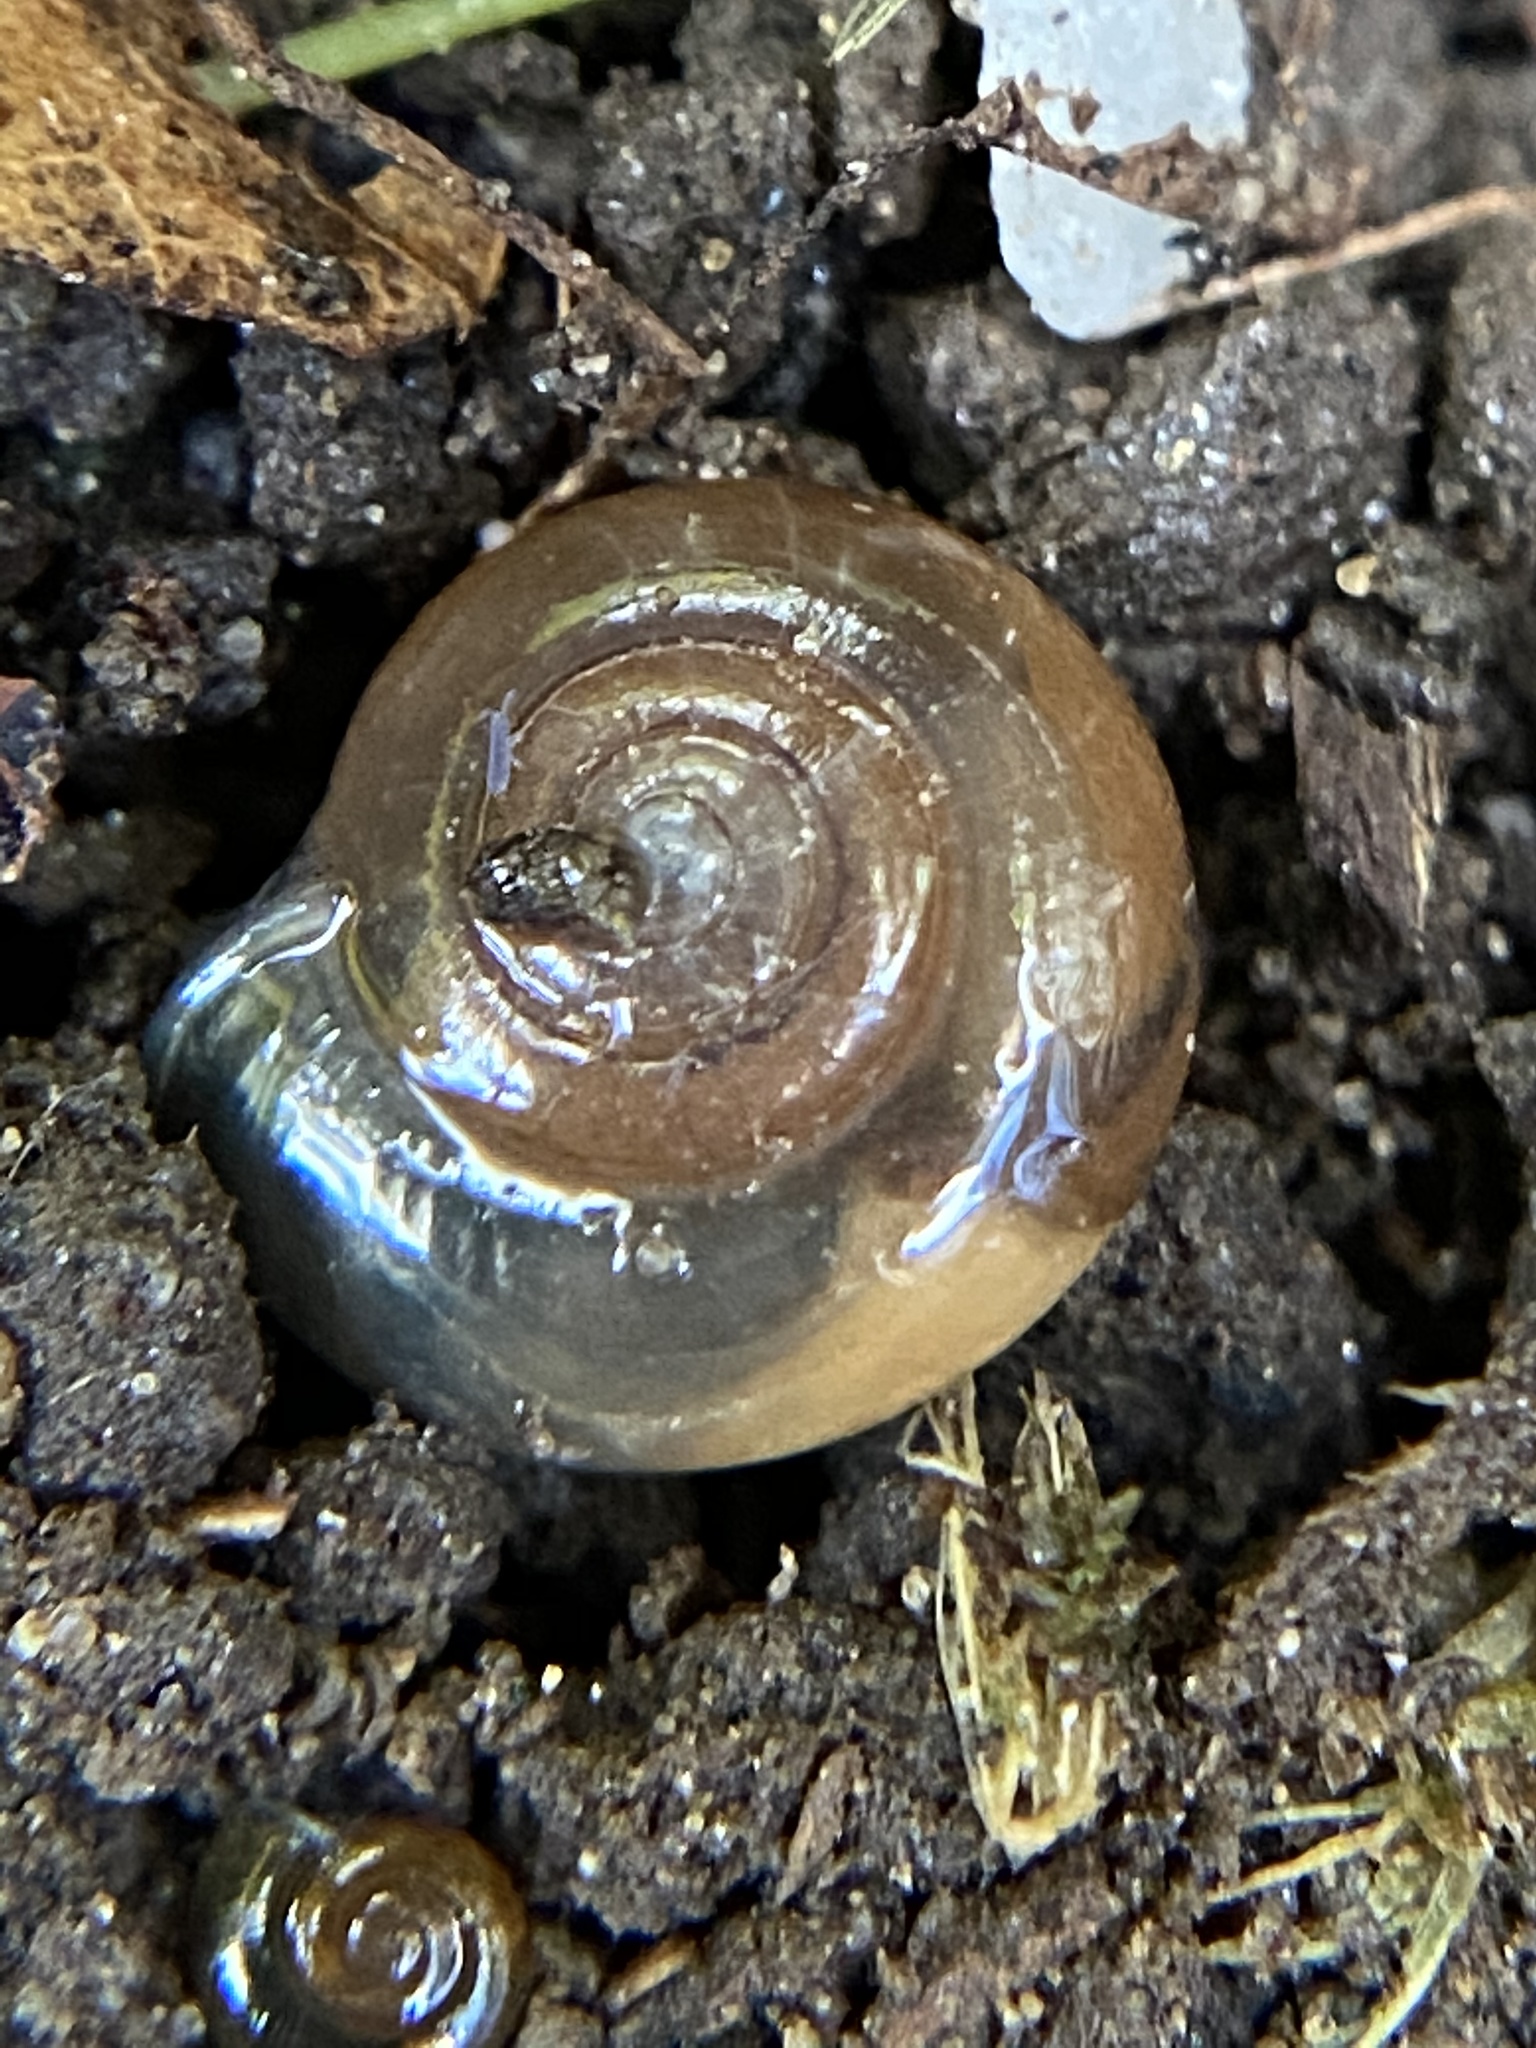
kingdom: Animalia
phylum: Mollusca
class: Gastropoda
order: Stylommatophora
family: Oxychilidae
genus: Oxychilus
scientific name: Oxychilus draparnaudi
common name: Draparnaud's glass snail
